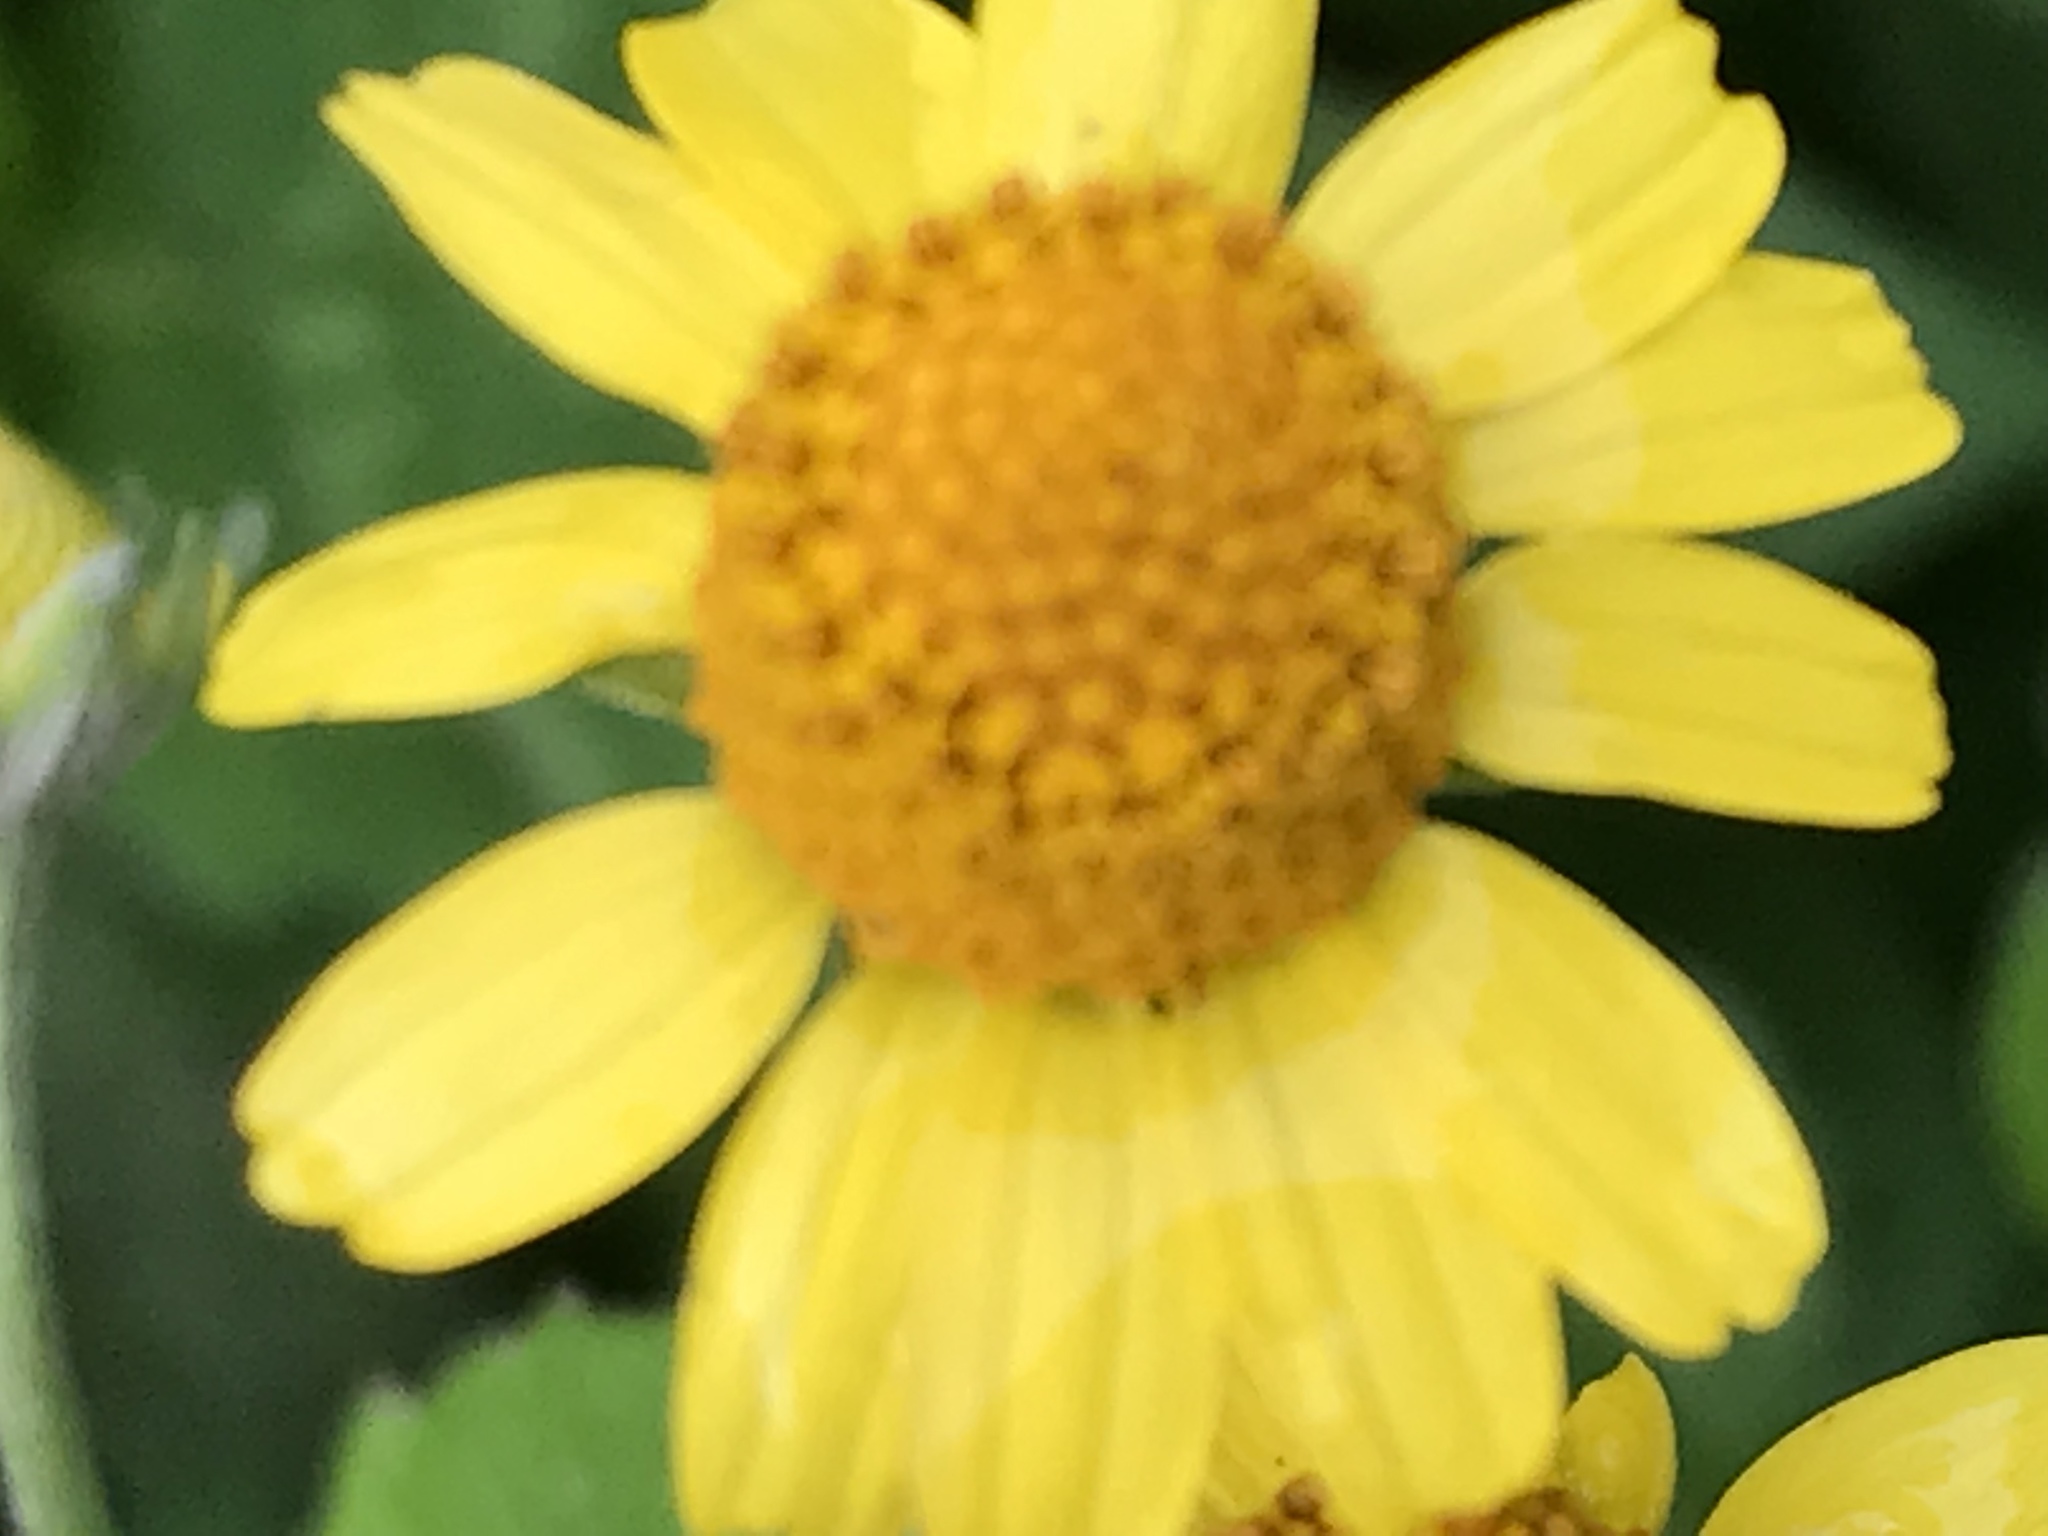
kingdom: Plantae
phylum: Tracheophyta
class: Magnoliopsida
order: Asterales
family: Asteraceae
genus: Acmella
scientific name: Acmella repens
